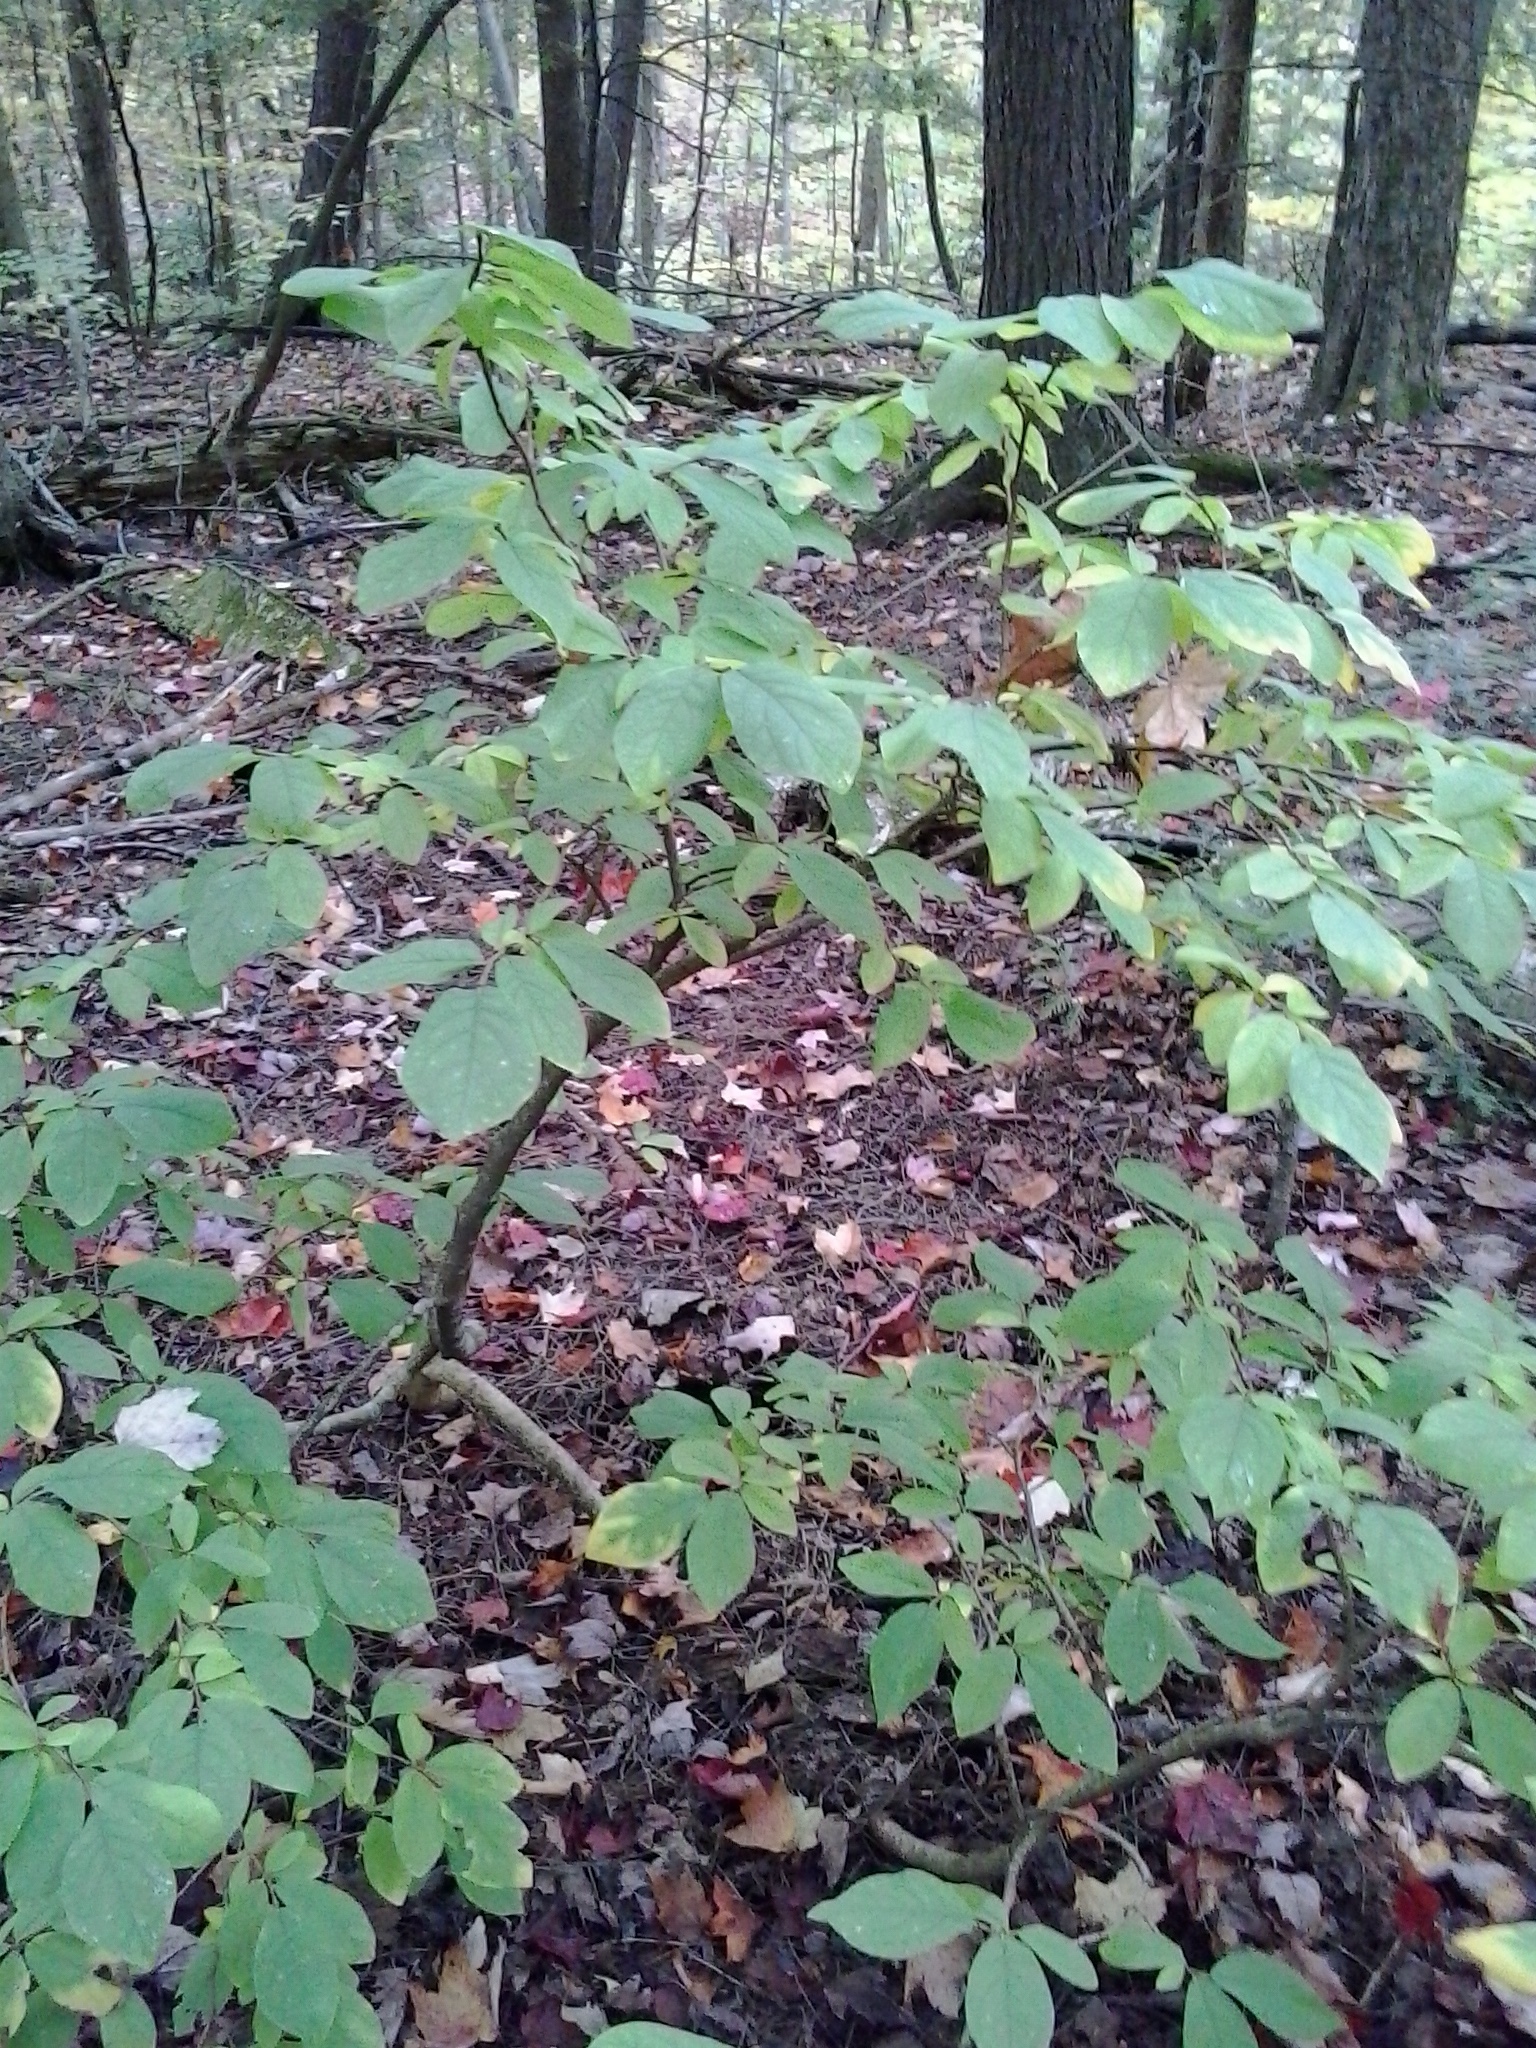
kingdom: Plantae
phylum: Tracheophyta
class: Magnoliopsida
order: Malvales
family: Thymelaeaceae
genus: Dirca
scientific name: Dirca palustris
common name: Leatherwood
